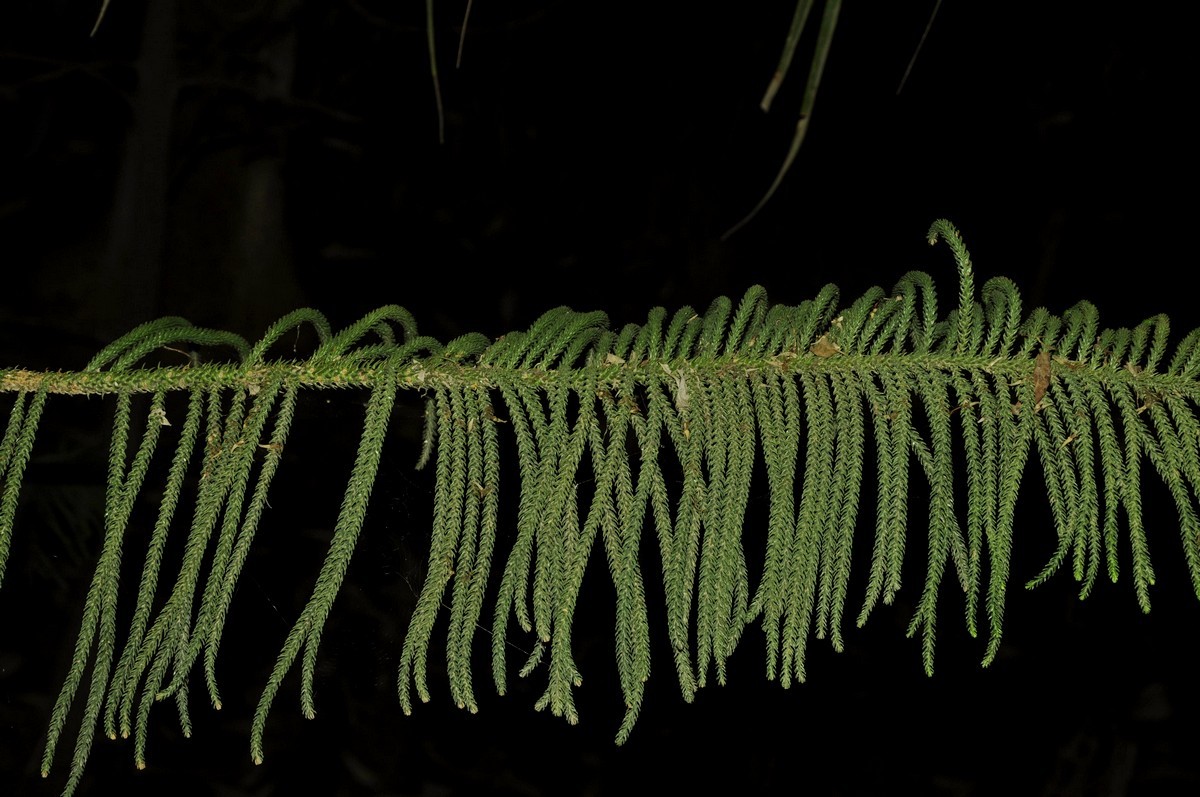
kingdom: Plantae
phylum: Tracheophyta
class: Pinopsida
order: Pinales
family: Araucariaceae
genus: Araucaria
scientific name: Araucaria heterophylla
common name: Norfolk island pine
